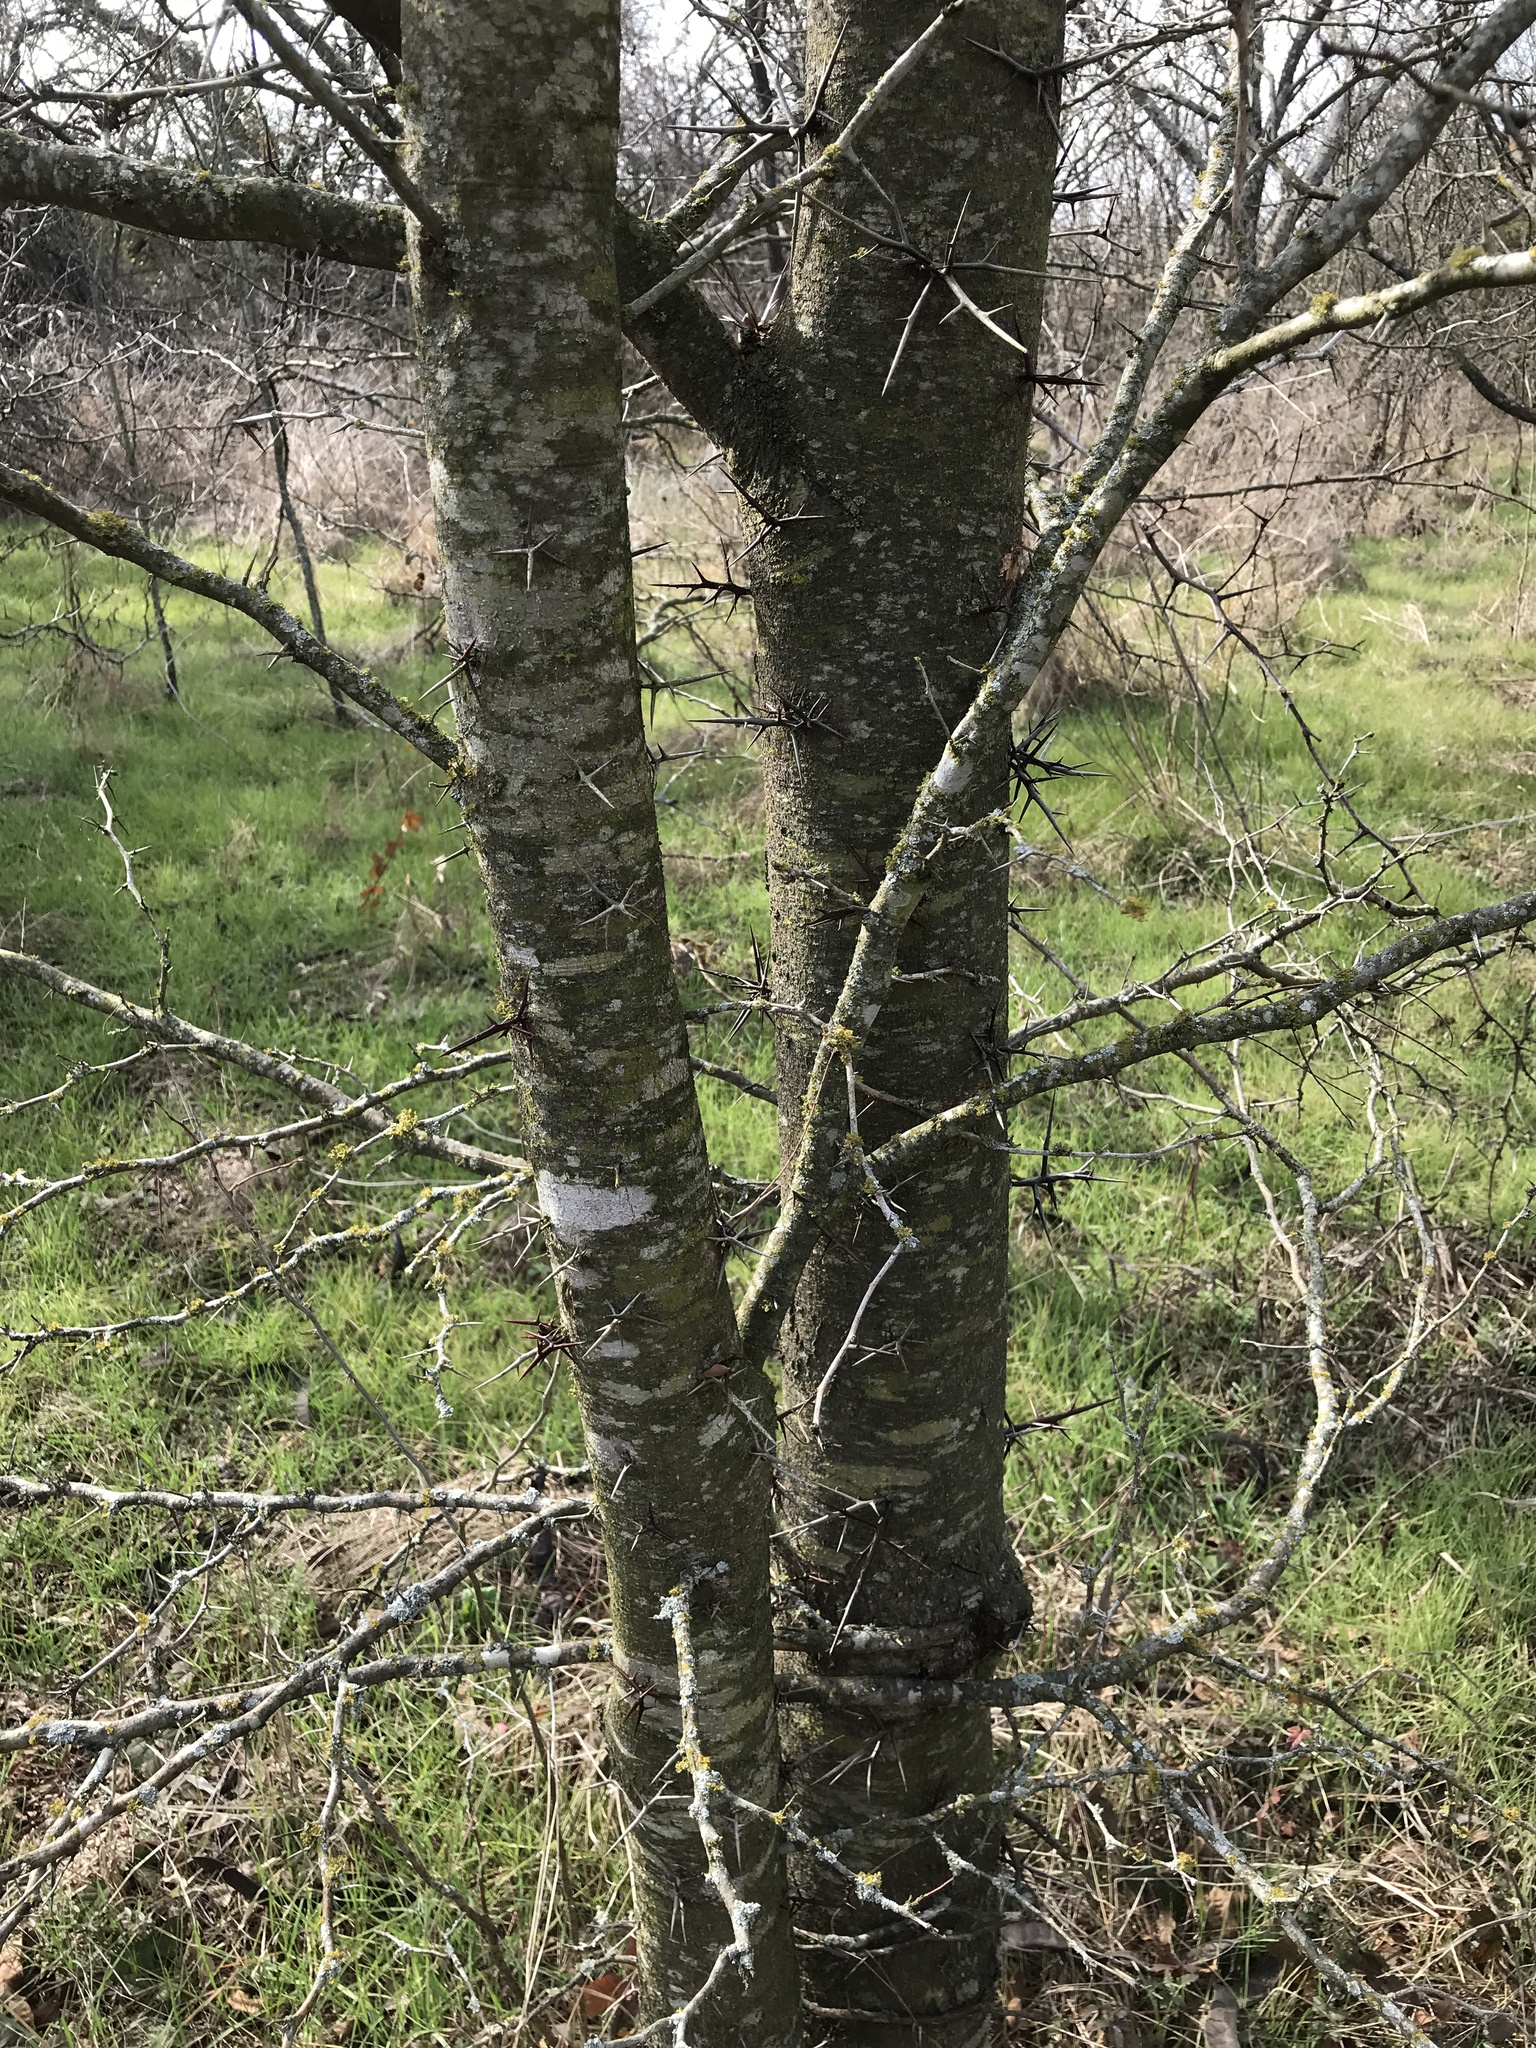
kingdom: Plantae
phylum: Tracheophyta
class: Magnoliopsida
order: Fabales
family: Fabaceae
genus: Gleditsia
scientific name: Gleditsia triacanthos
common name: Common honeylocust
